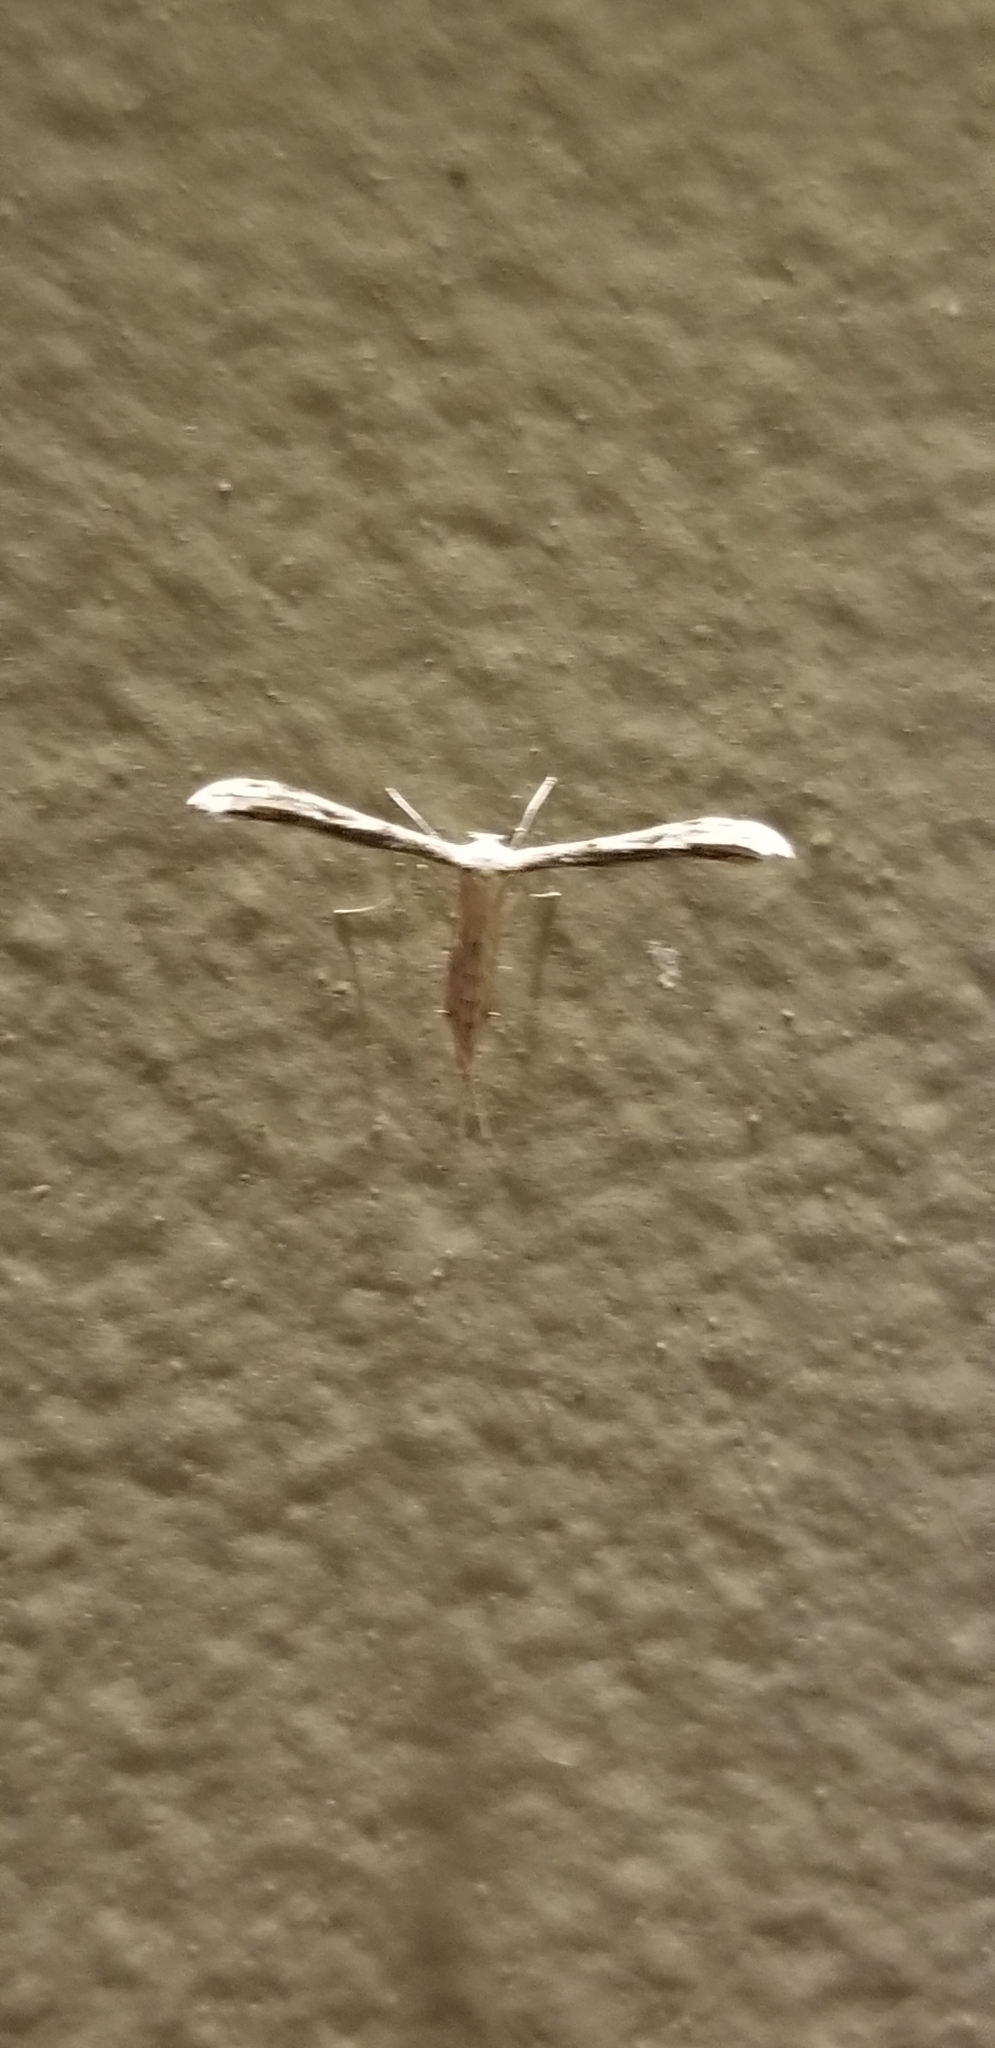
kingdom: Animalia
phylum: Arthropoda
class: Insecta
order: Lepidoptera
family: Pterophoridae
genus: Pselnophorus
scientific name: Pselnophorus belfragei
